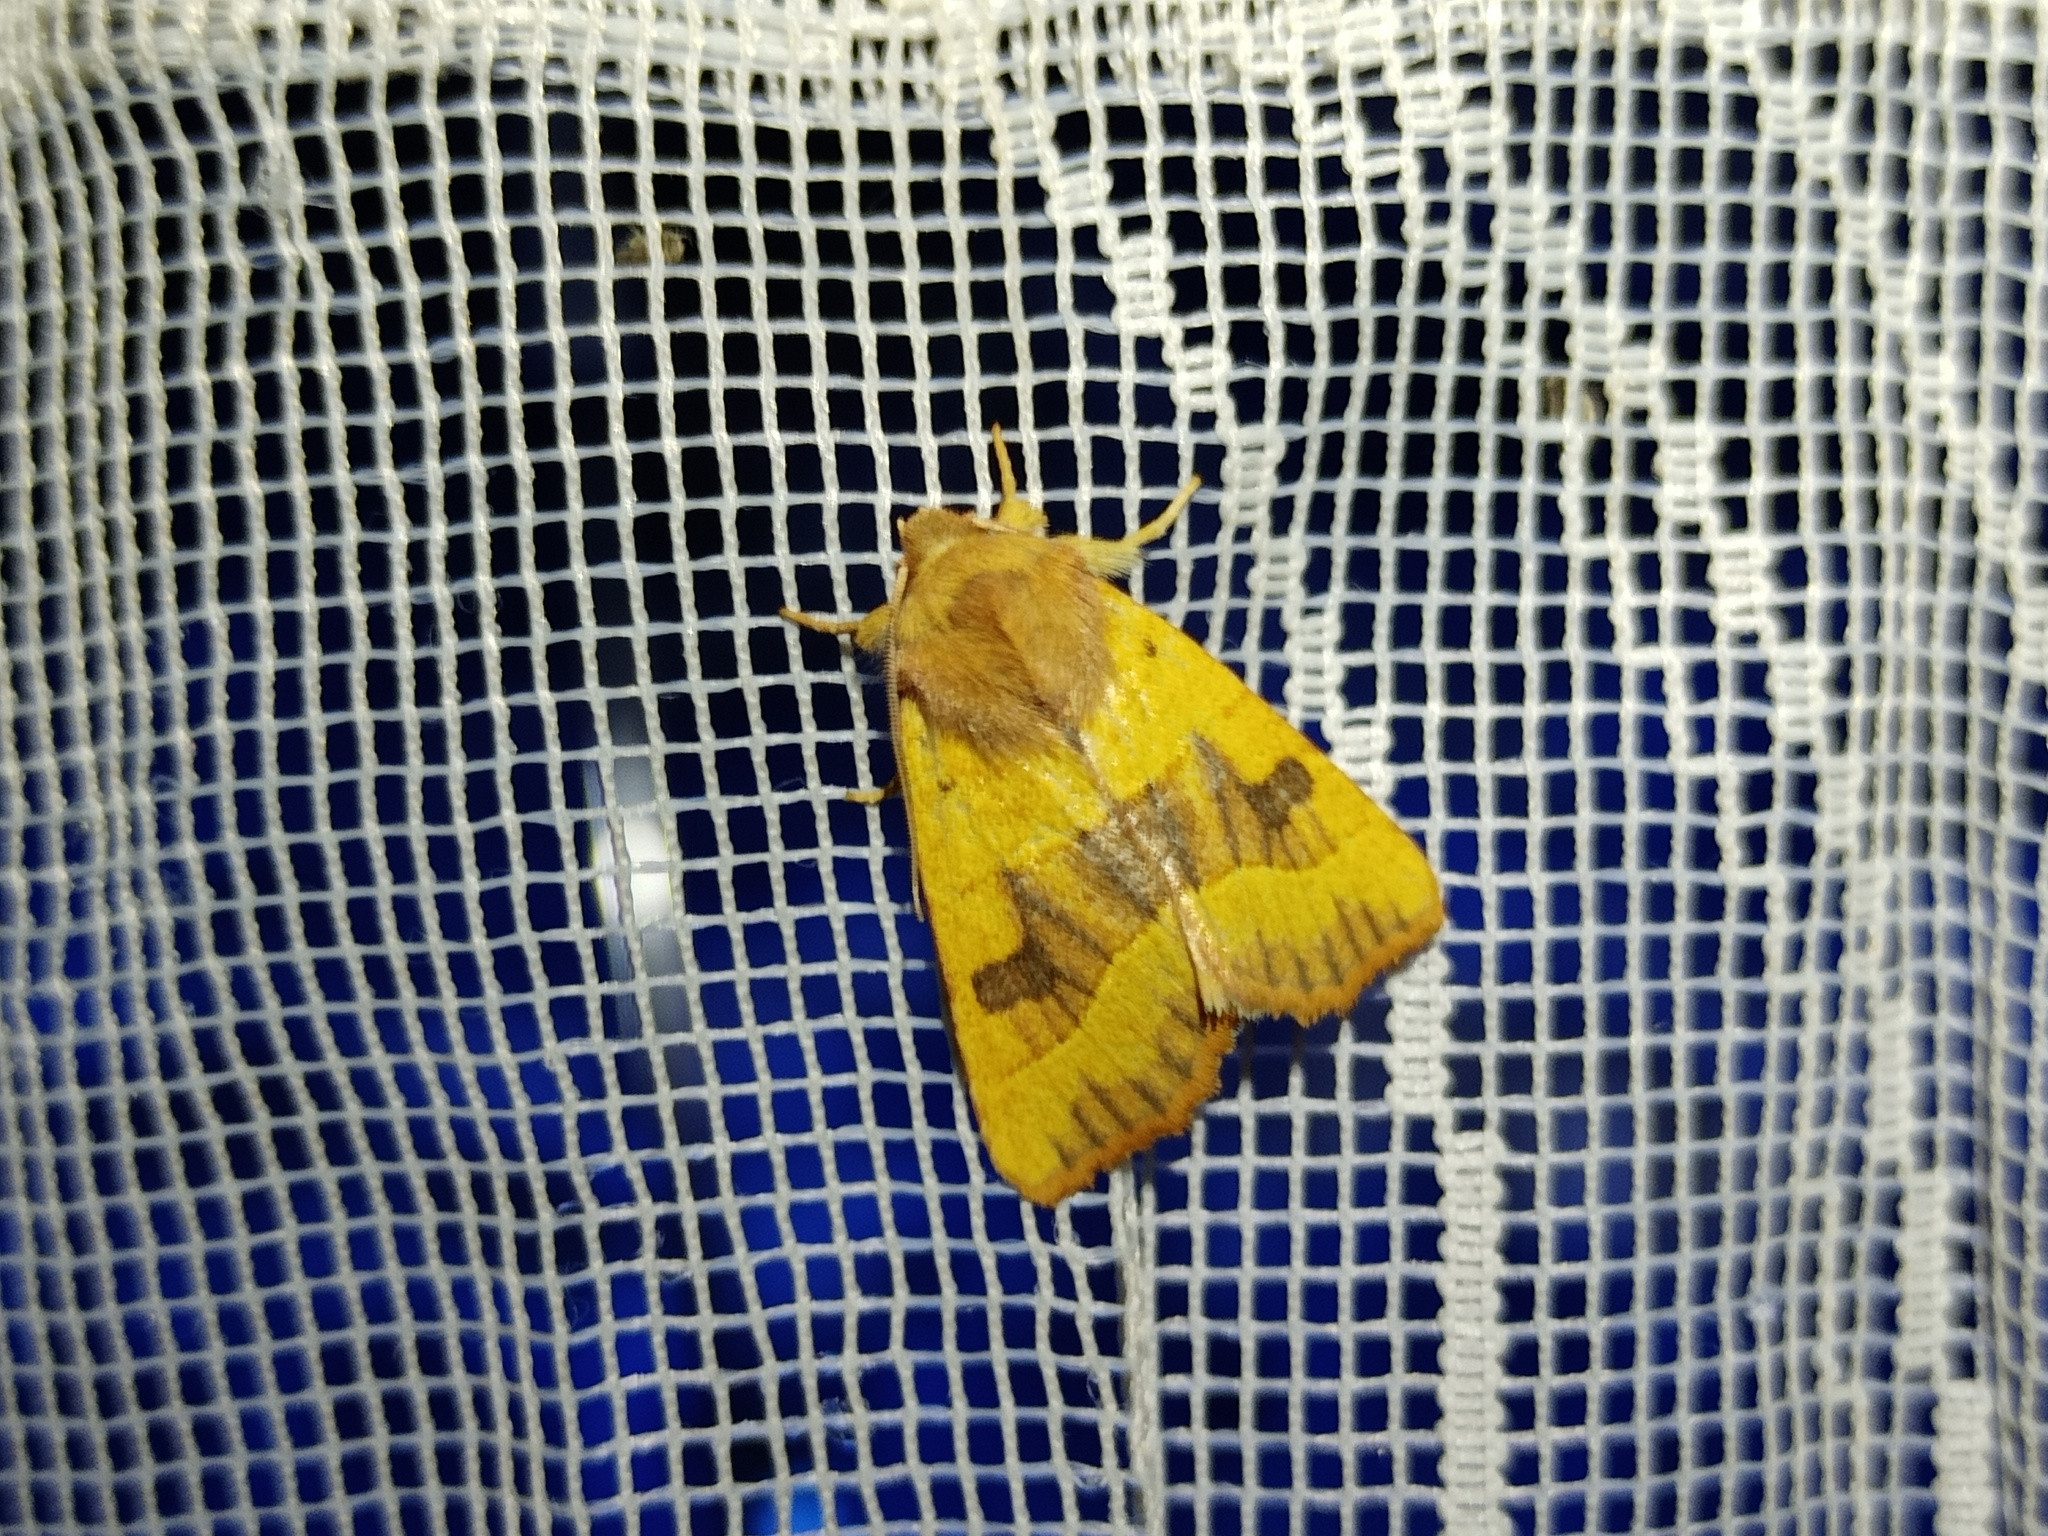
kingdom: Animalia
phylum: Arthropoda
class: Insecta
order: Lepidoptera
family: Noctuidae
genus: Atethmia
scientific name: Atethmia centrago
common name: Centre-barred sallow
